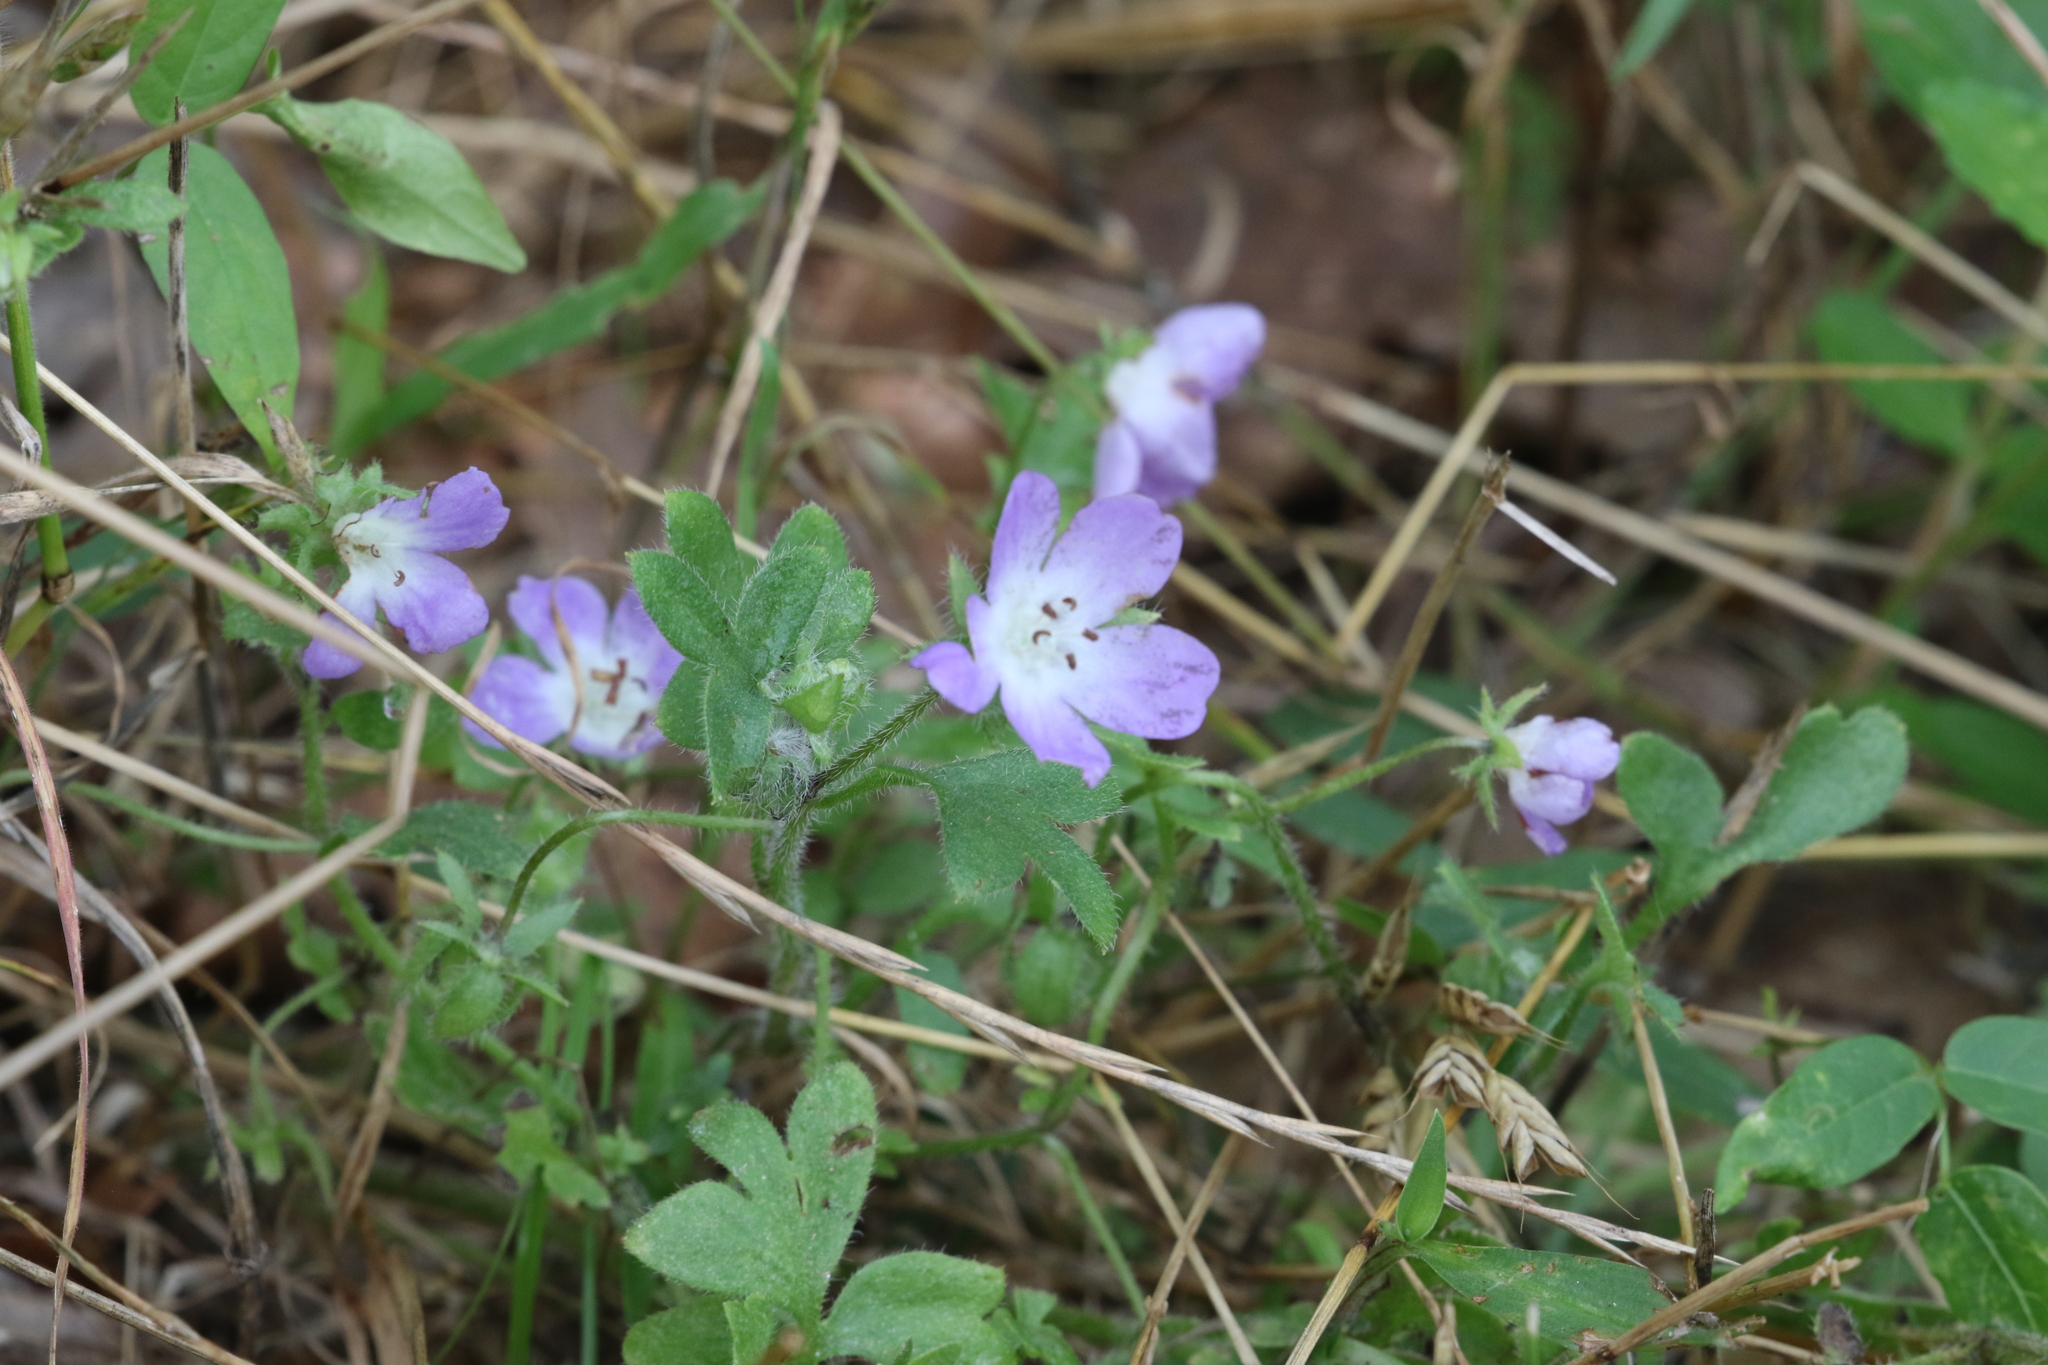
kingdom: Plantae
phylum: Tracheophyta
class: Magnoliopsida
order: Boraginales
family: Hydrophyllaceae
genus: Nemophila
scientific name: Nemophila phacelioides
